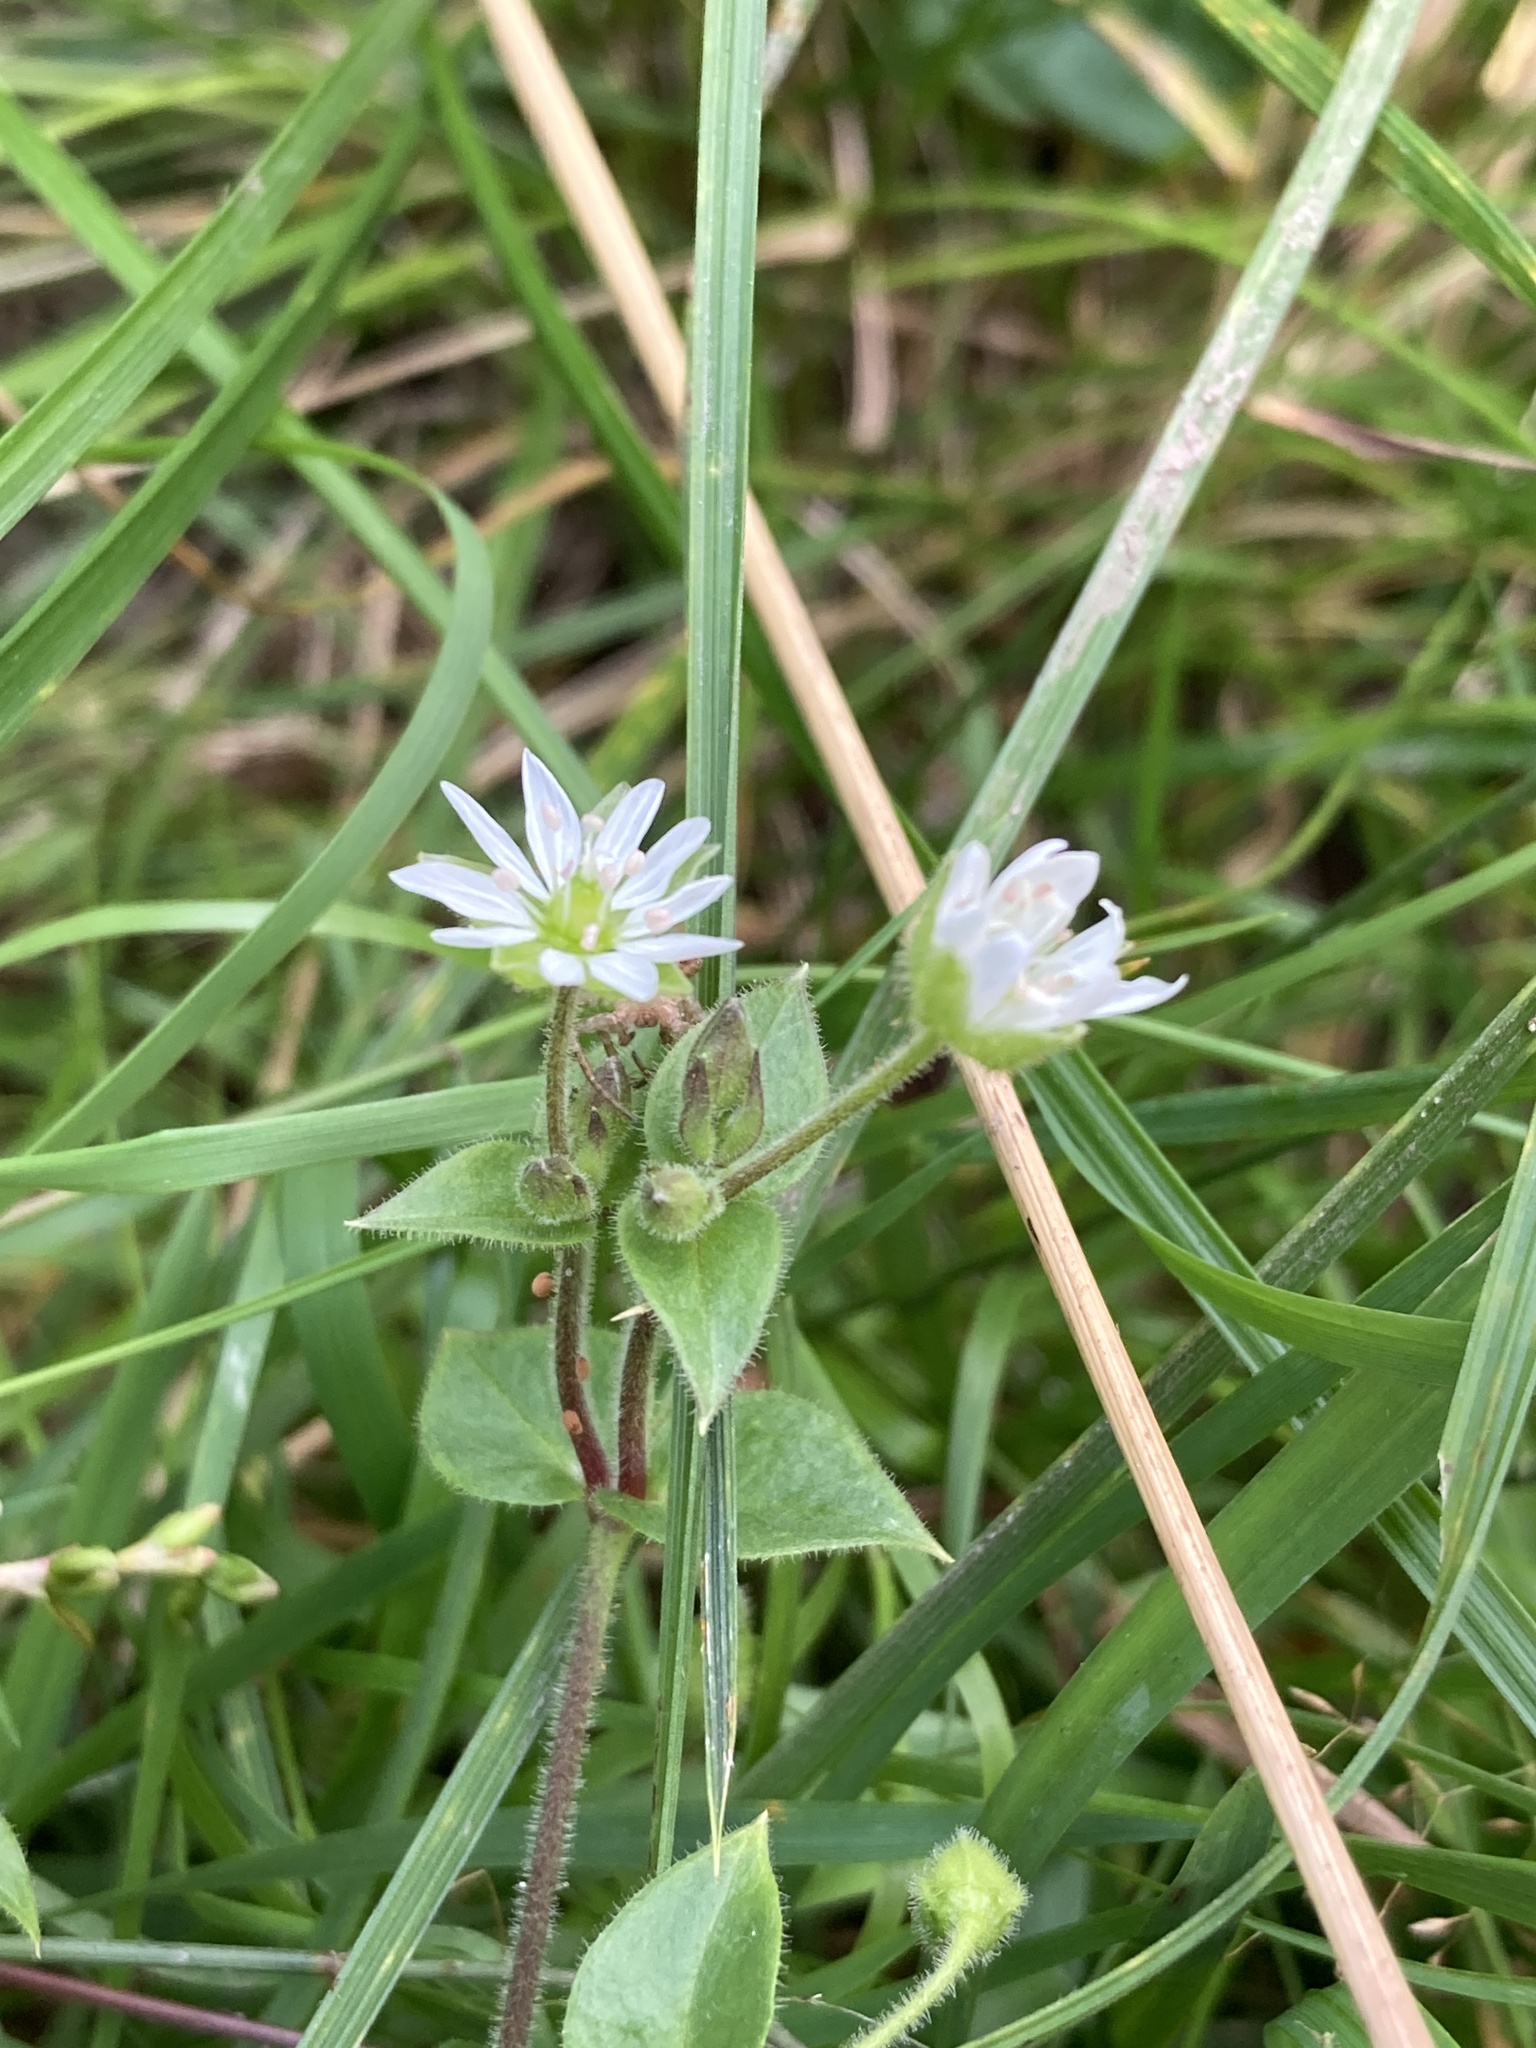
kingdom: Plantae
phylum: Tracheophyta
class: Magnoliopsida
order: Caryophyllales
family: Caryophyllaceae
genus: Stellaria
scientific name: Stellaria aquatica
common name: Water chickweed
